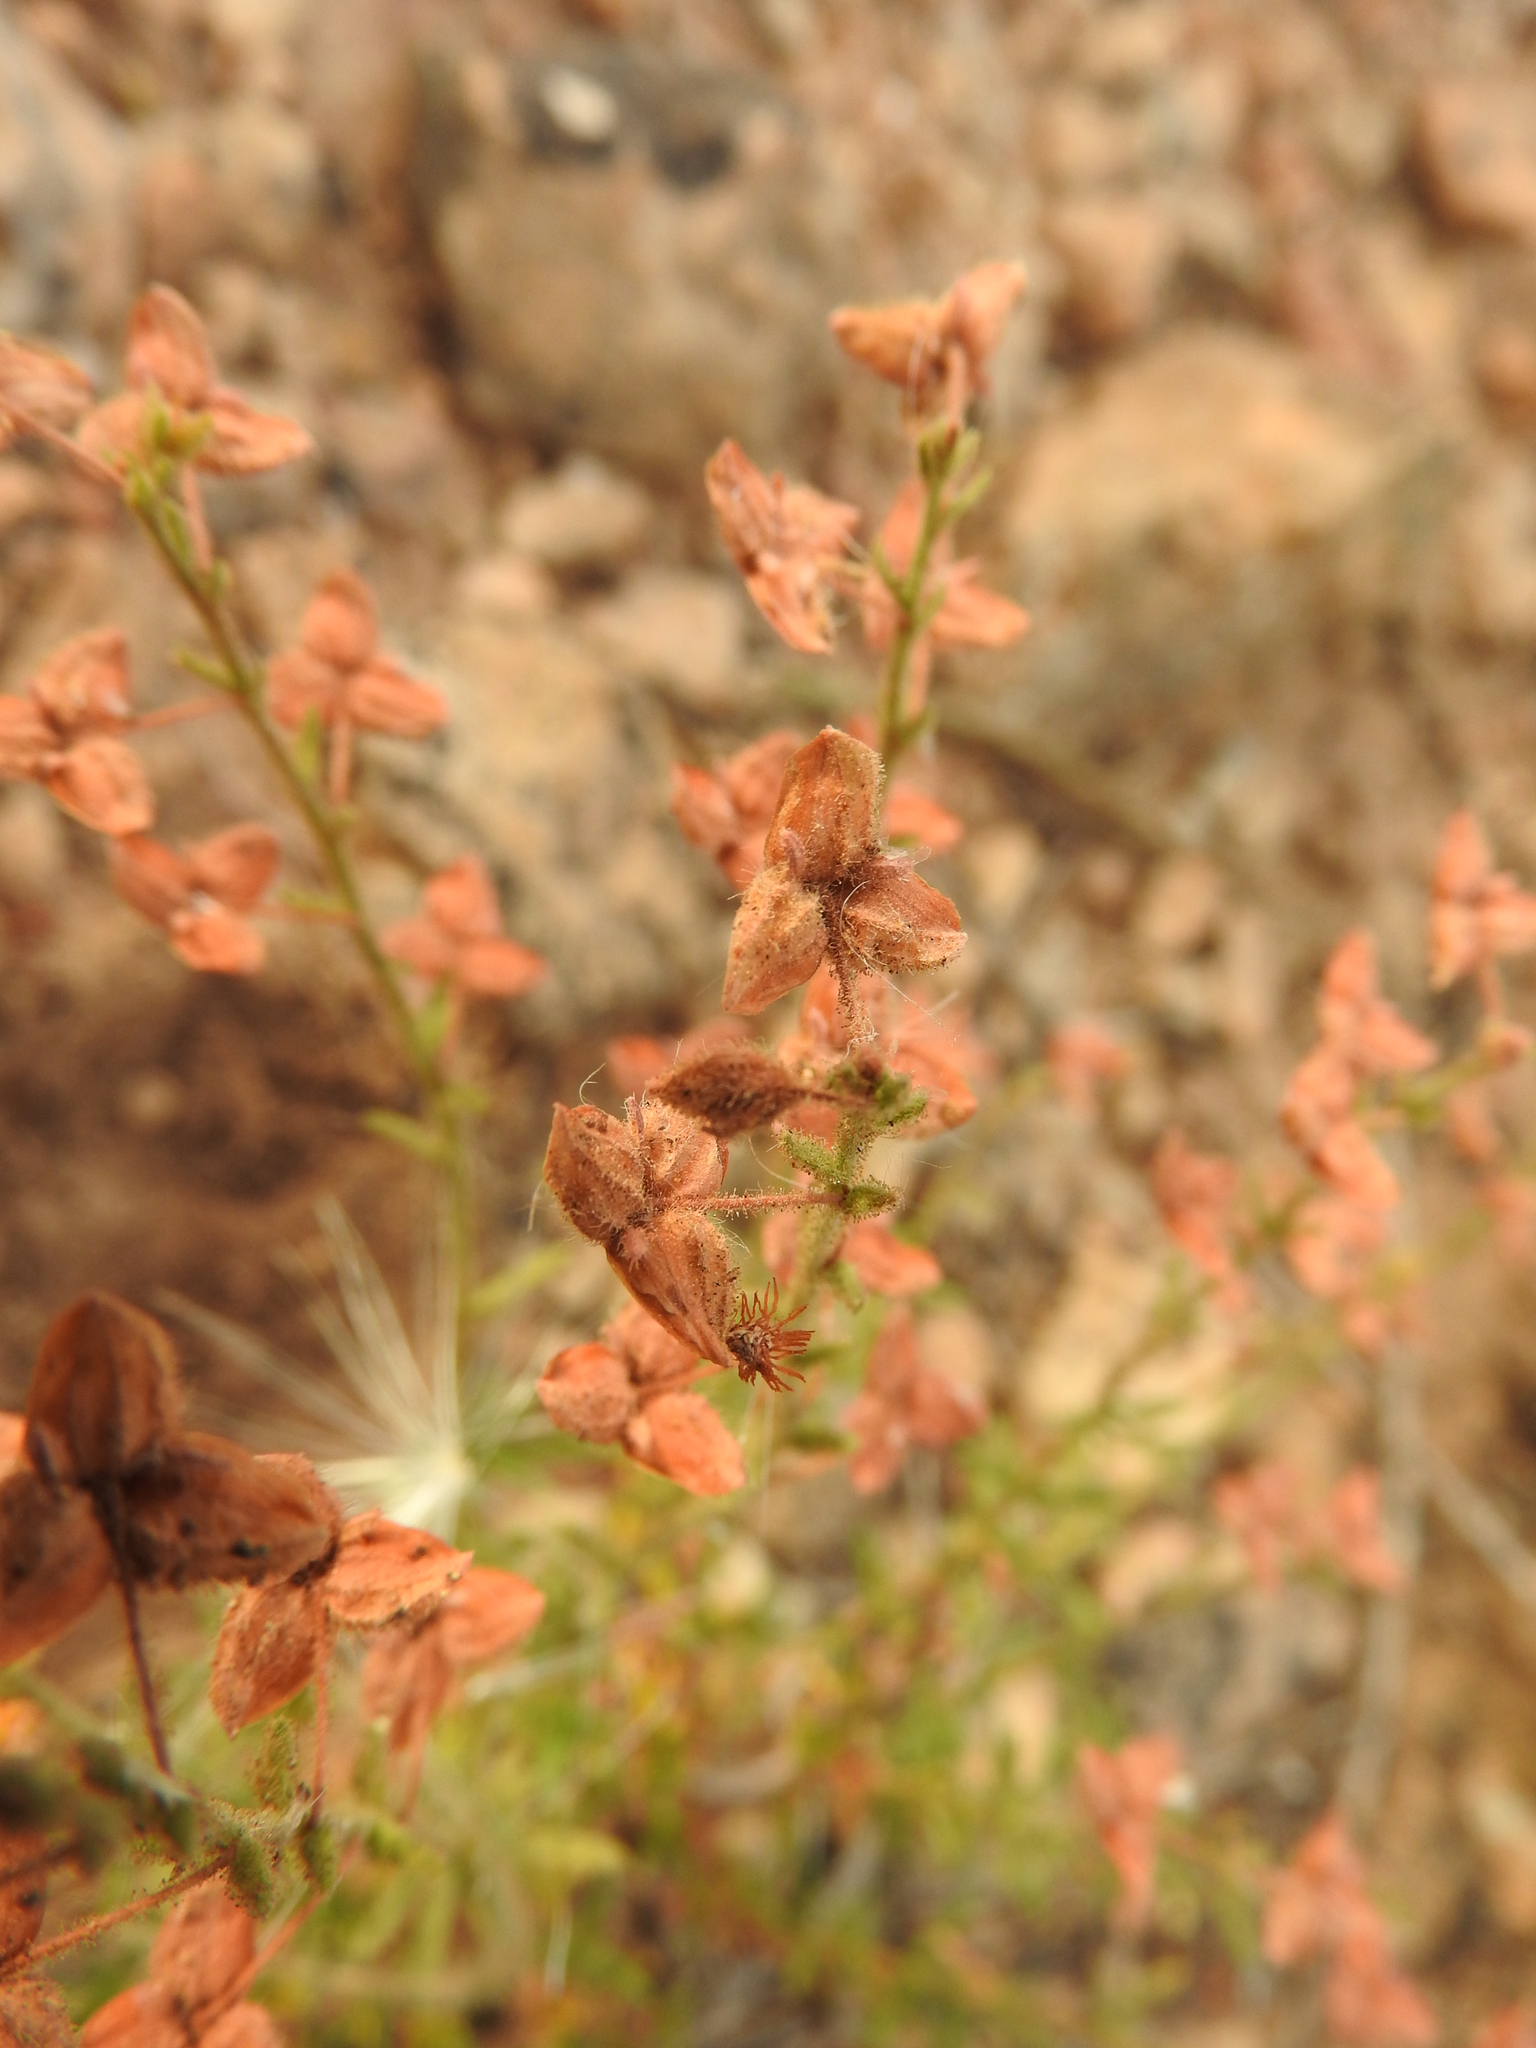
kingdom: Plantae
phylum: Tracheophyta
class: Magnoliopsida
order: Malvales
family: Cistaceae
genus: Fumana
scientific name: Fumana thymifolia
